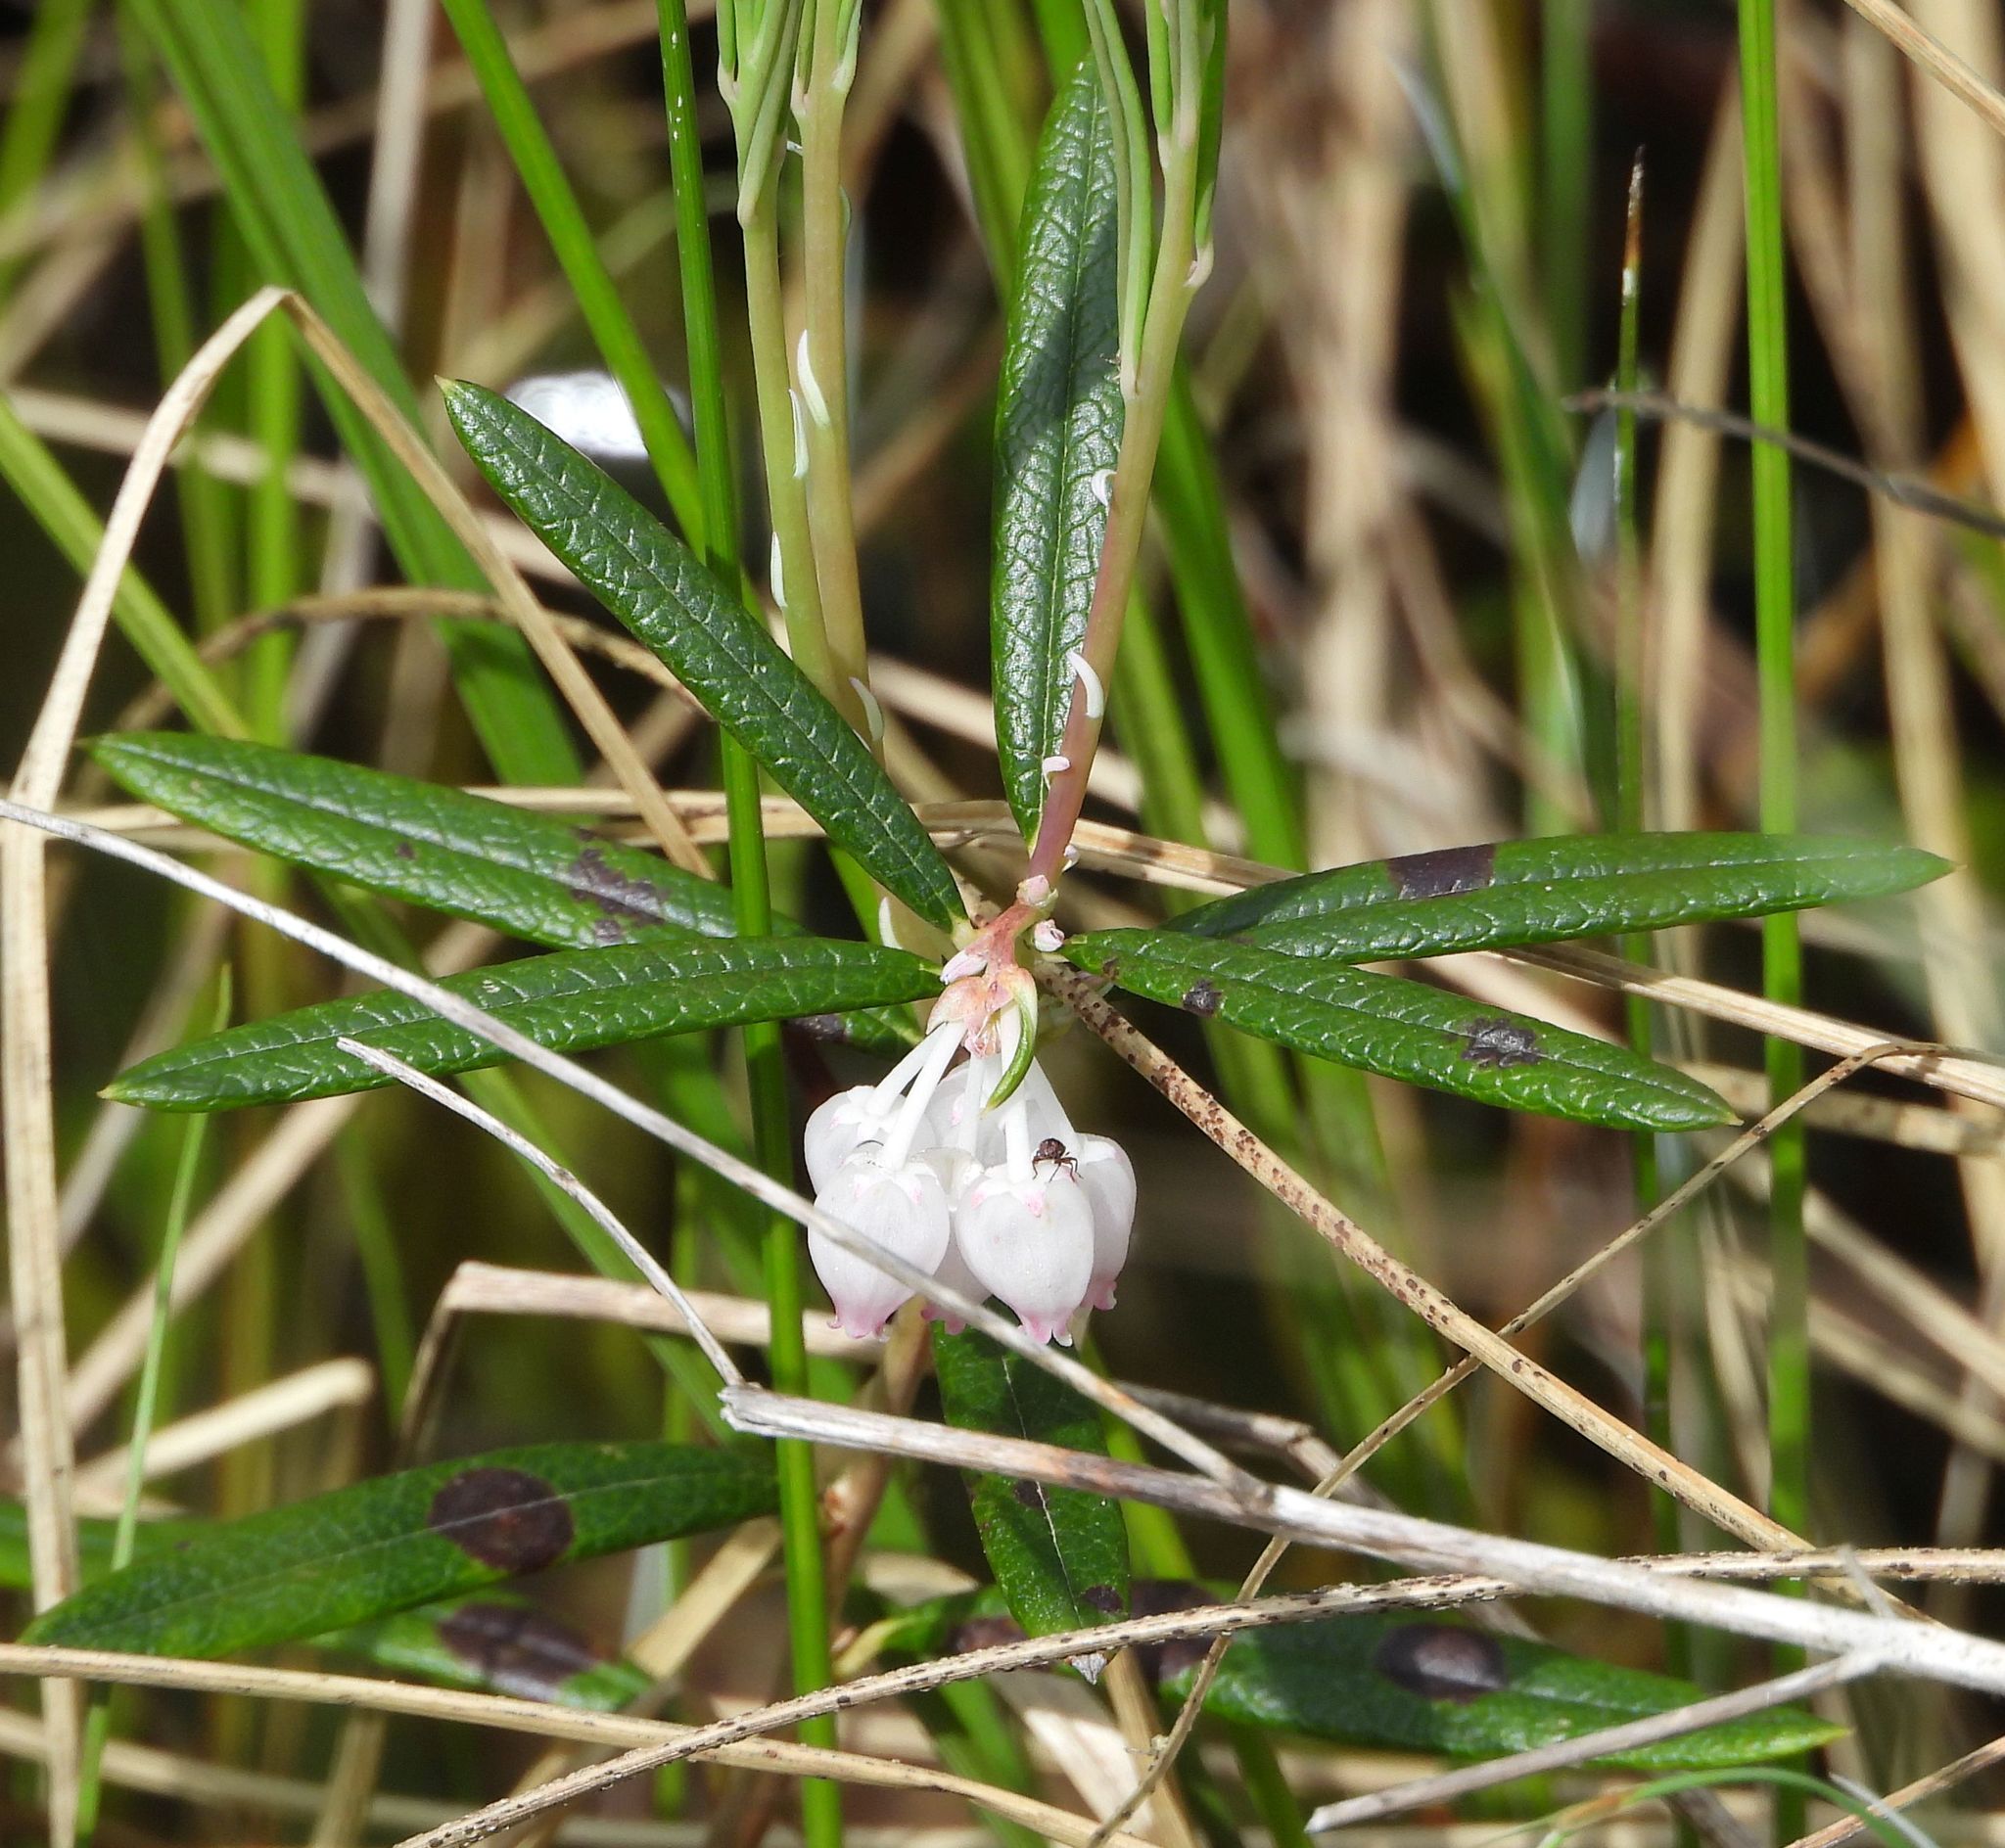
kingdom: Plantae
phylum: Tracheophyta
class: Magnoliopsida
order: Ericales
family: Ericaceae
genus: Andromeda
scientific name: Andromeda polifolia
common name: Bog-rosemary
